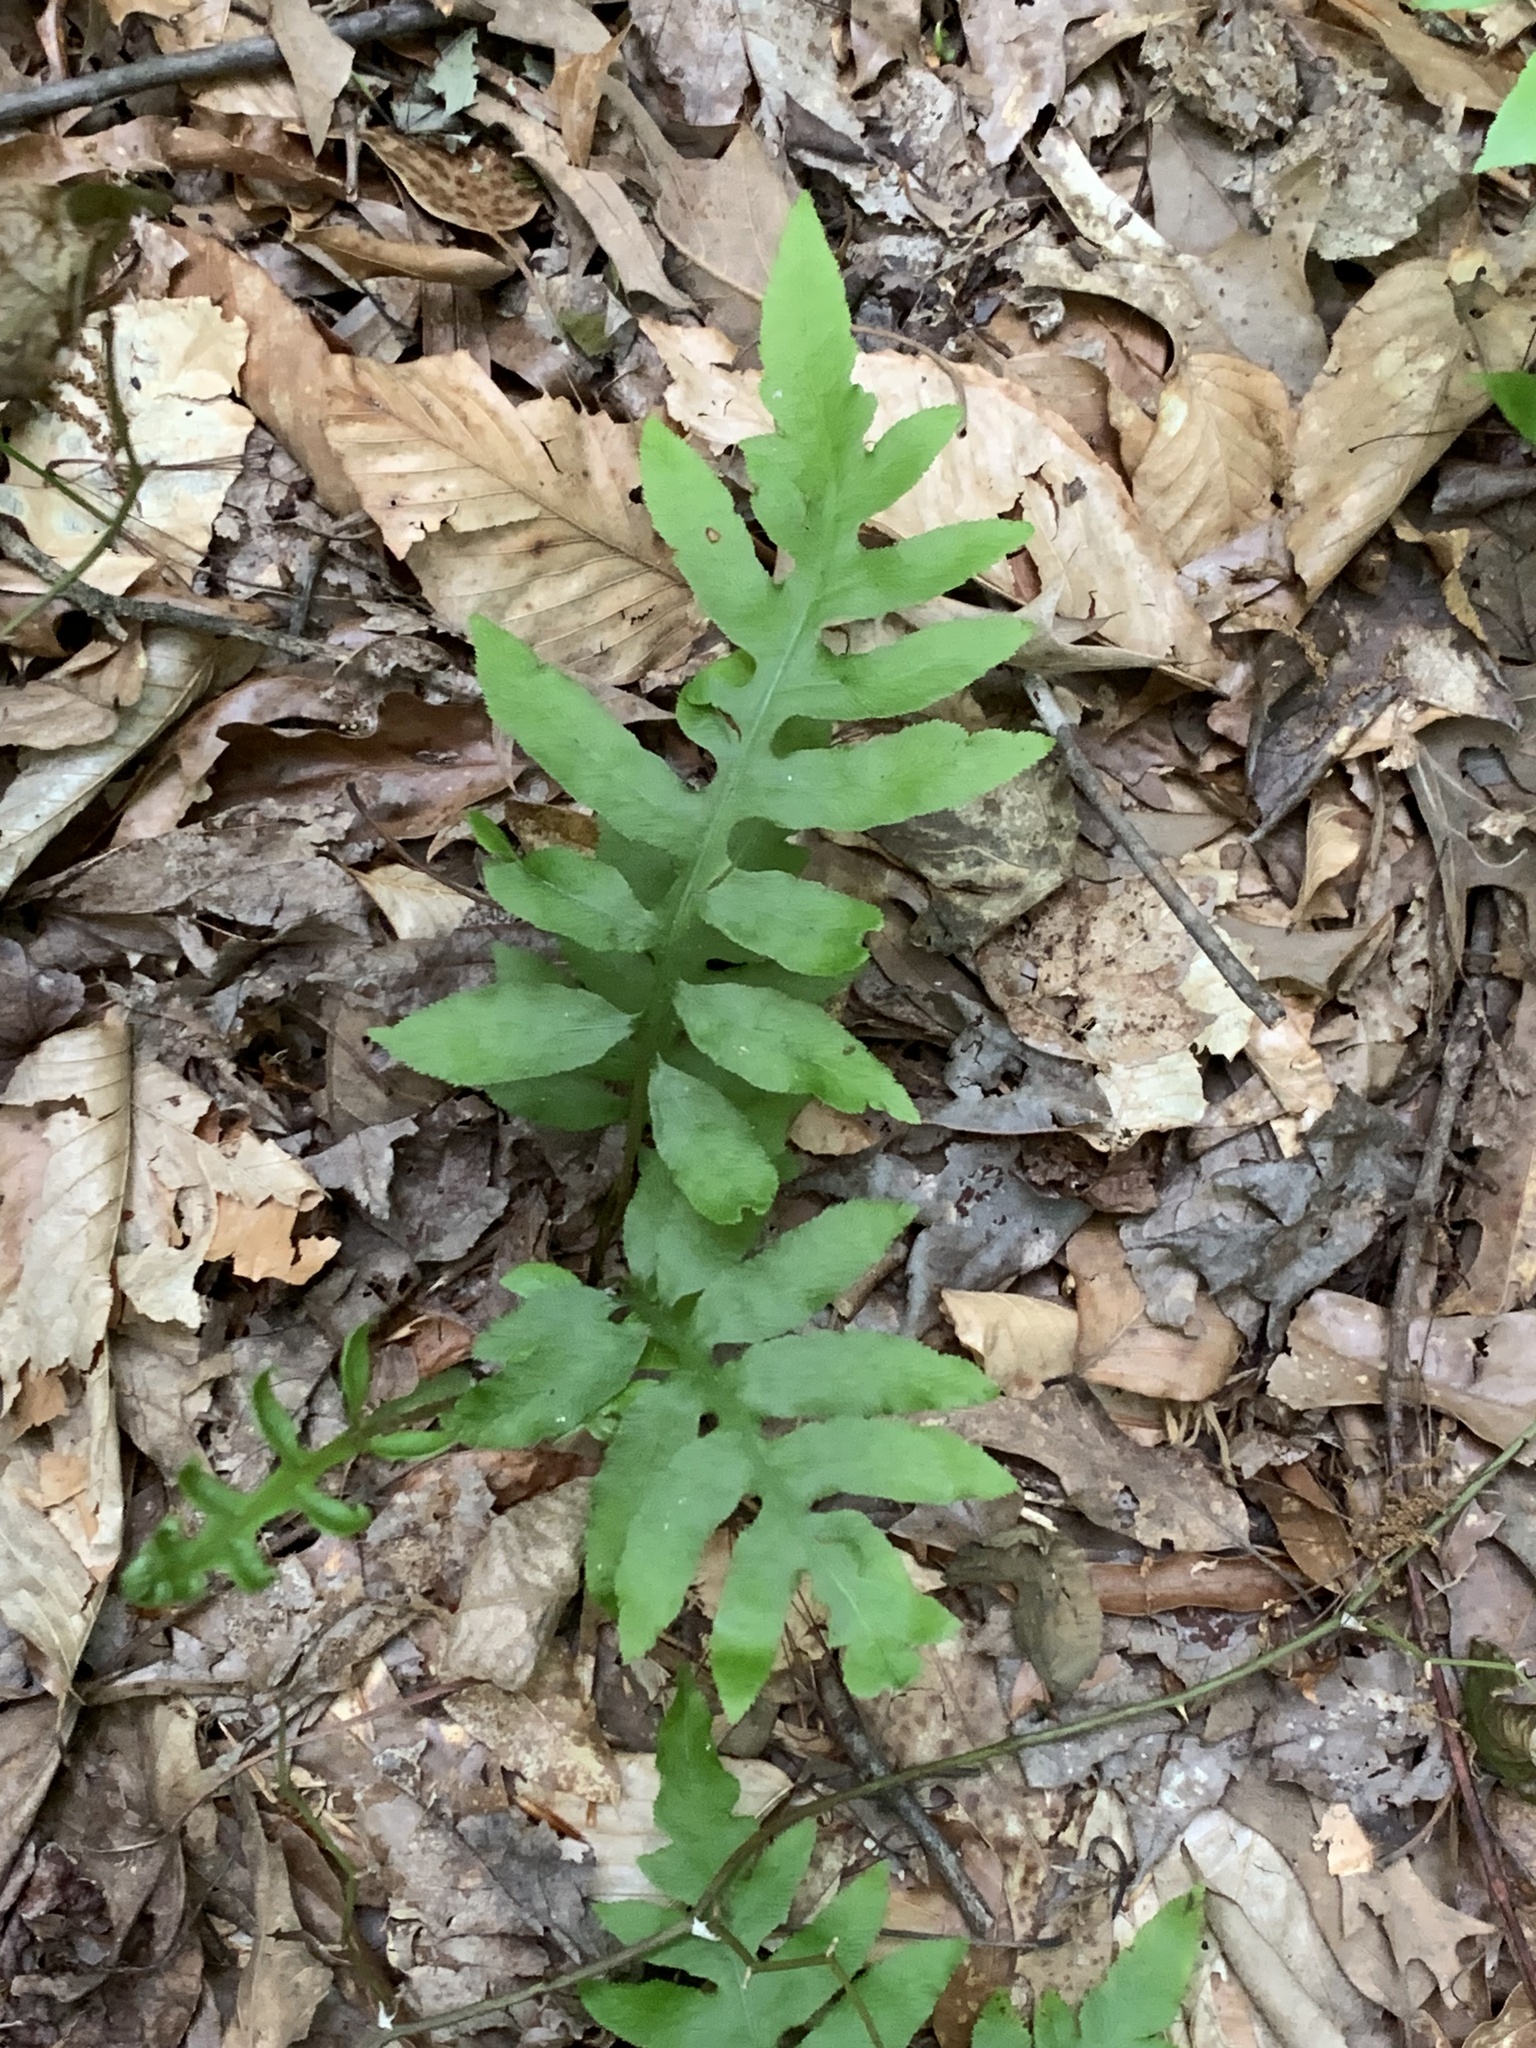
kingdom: Plantae
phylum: Tracheophyta
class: Polypodiopsida
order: Polypodiales
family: Blechnaceae
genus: Lorinseria
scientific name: Lorinseria areolata
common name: Dwarf chain fern
